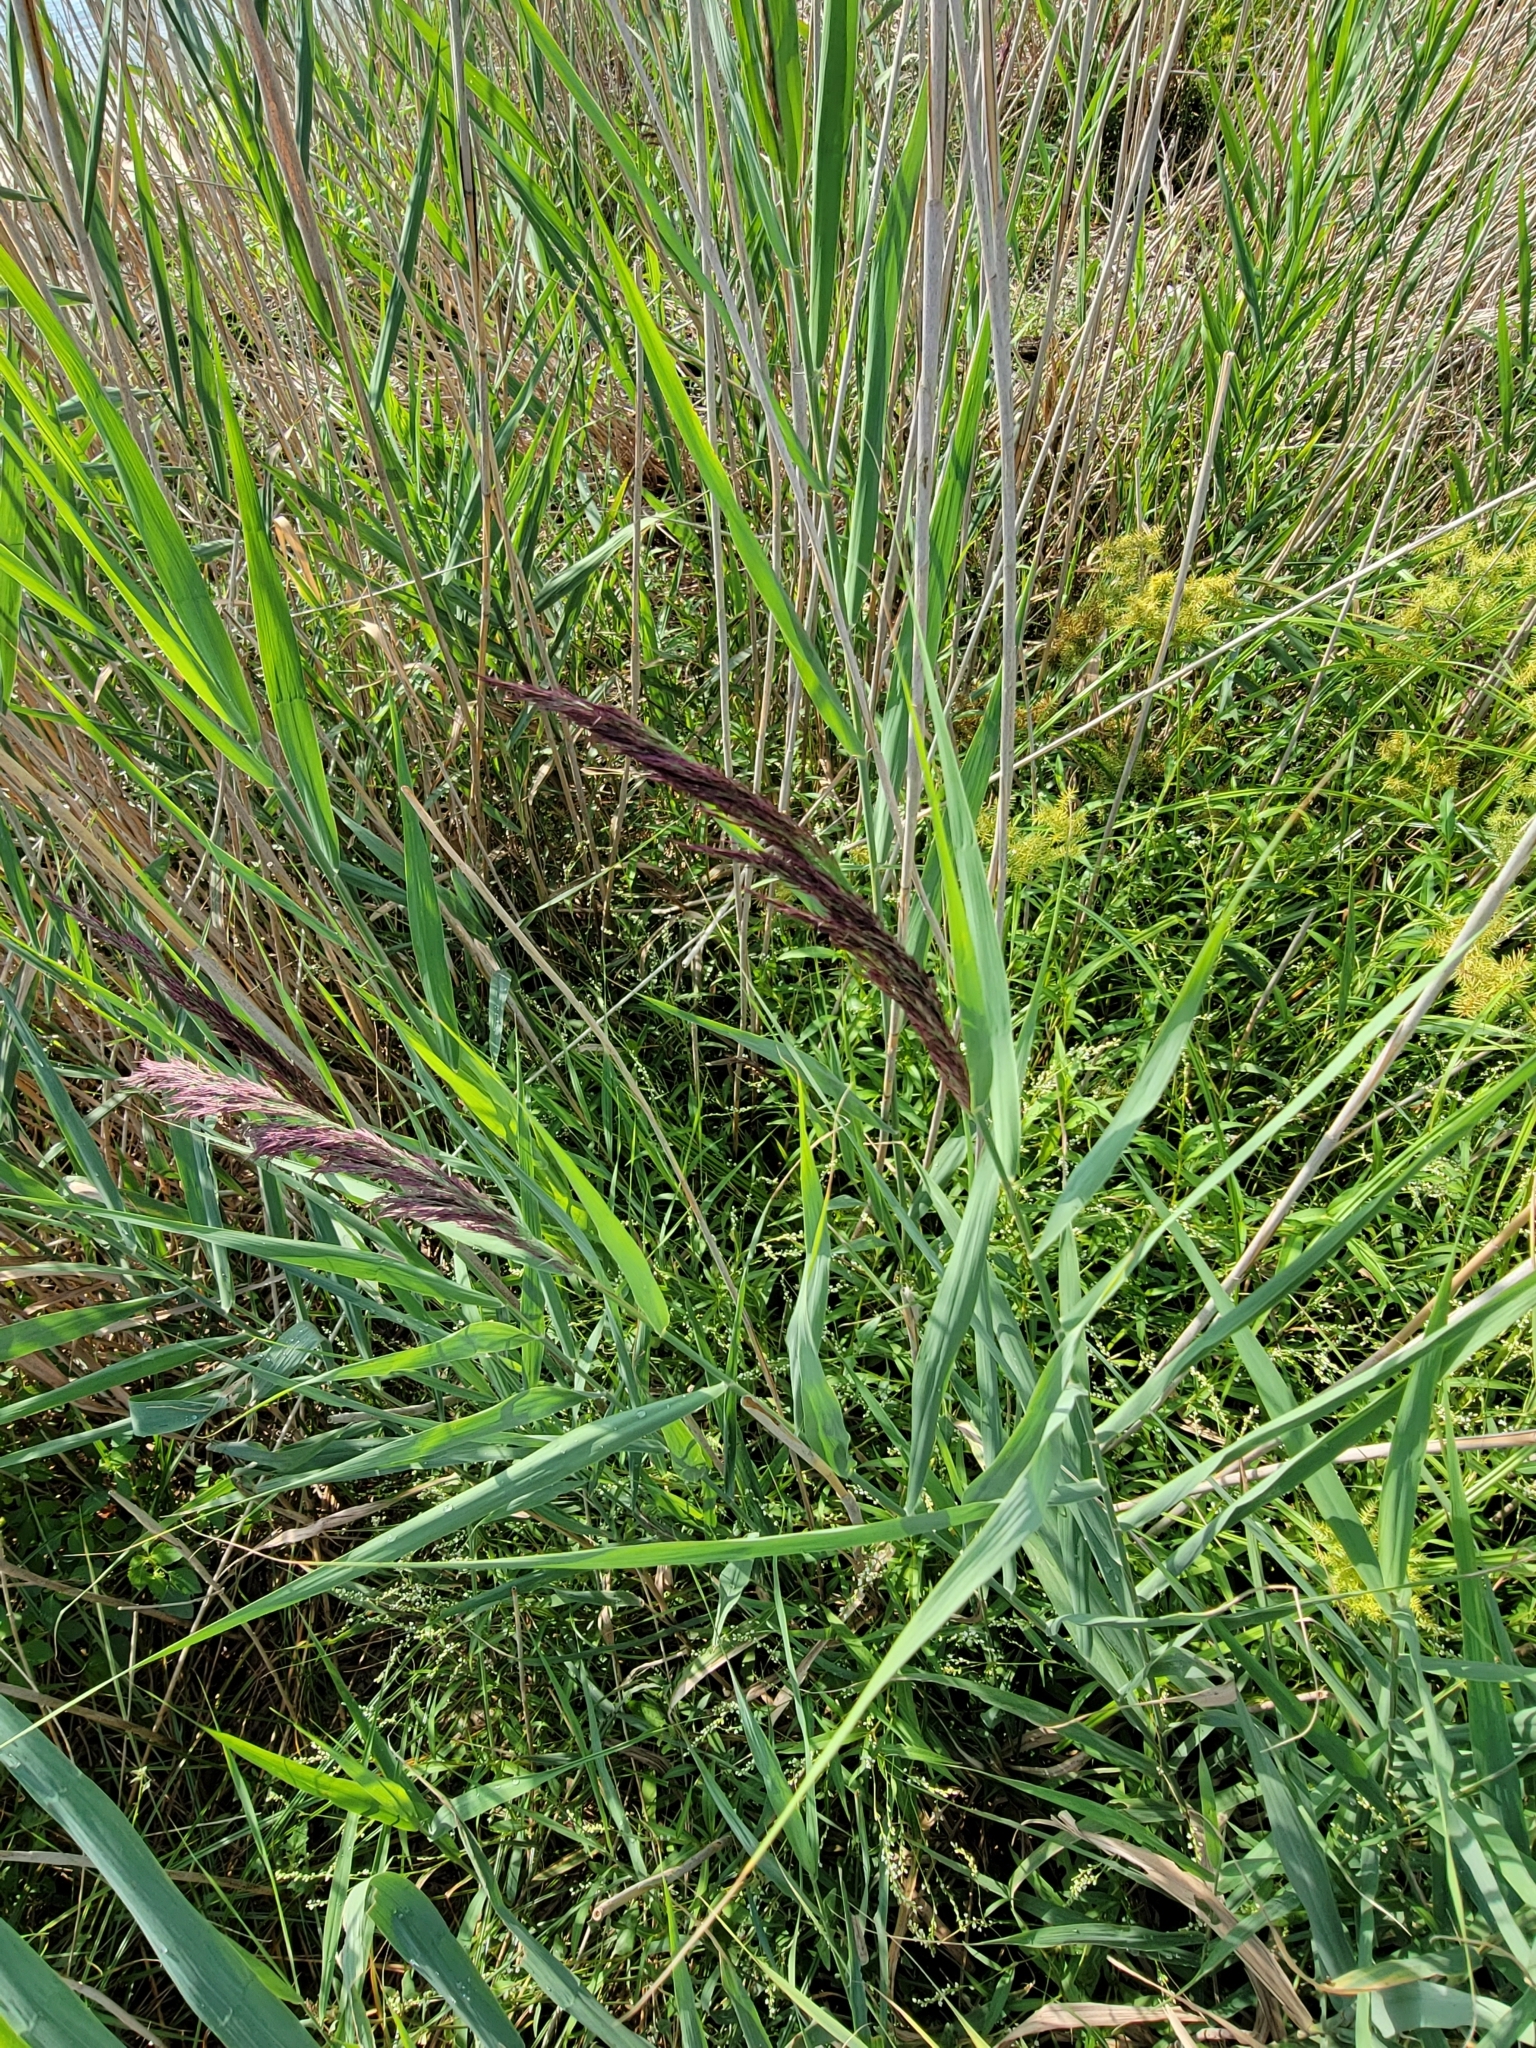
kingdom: Plantae
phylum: Tracheophyta
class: Liliopsida
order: Poales
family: Poaceae
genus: Phragmites
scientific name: Phragmites australis
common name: Common reed
